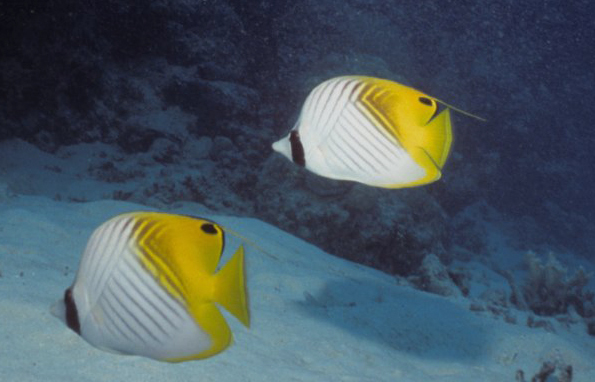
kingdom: Animalia
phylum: Chordata
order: Perciformes
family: Chaetodontidae
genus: Chaetodon
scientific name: Chaetodon auriga
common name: Threadfin butterflyfish
